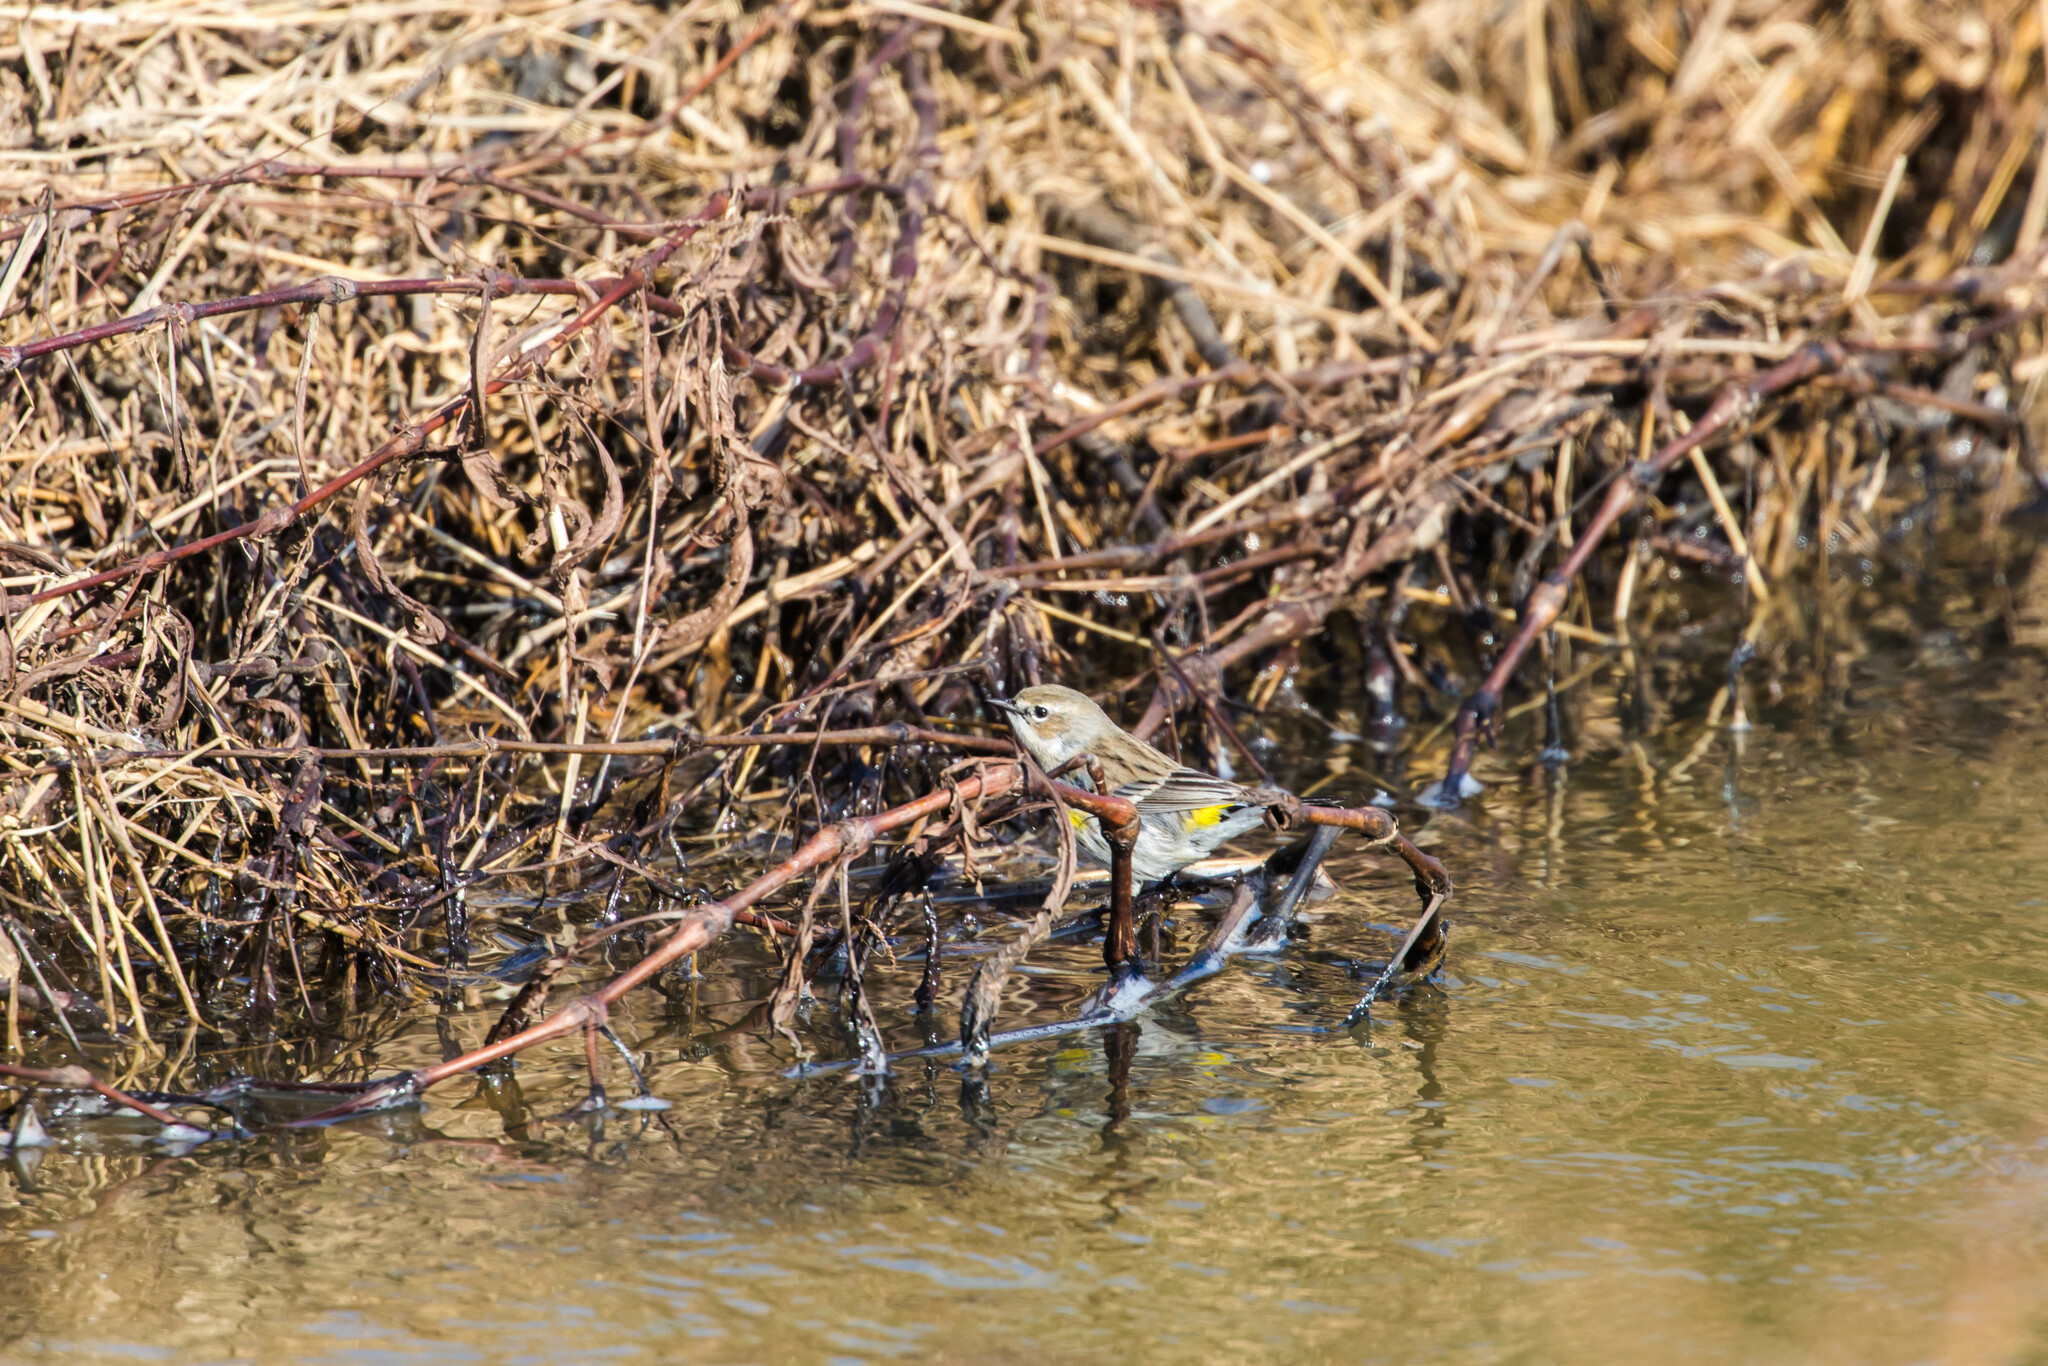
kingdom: Animalia
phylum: Chordata
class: Aves
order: Passeriformes
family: Parulidae
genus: Setophaga
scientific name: Setophaga coronata
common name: Myrtle warbler
